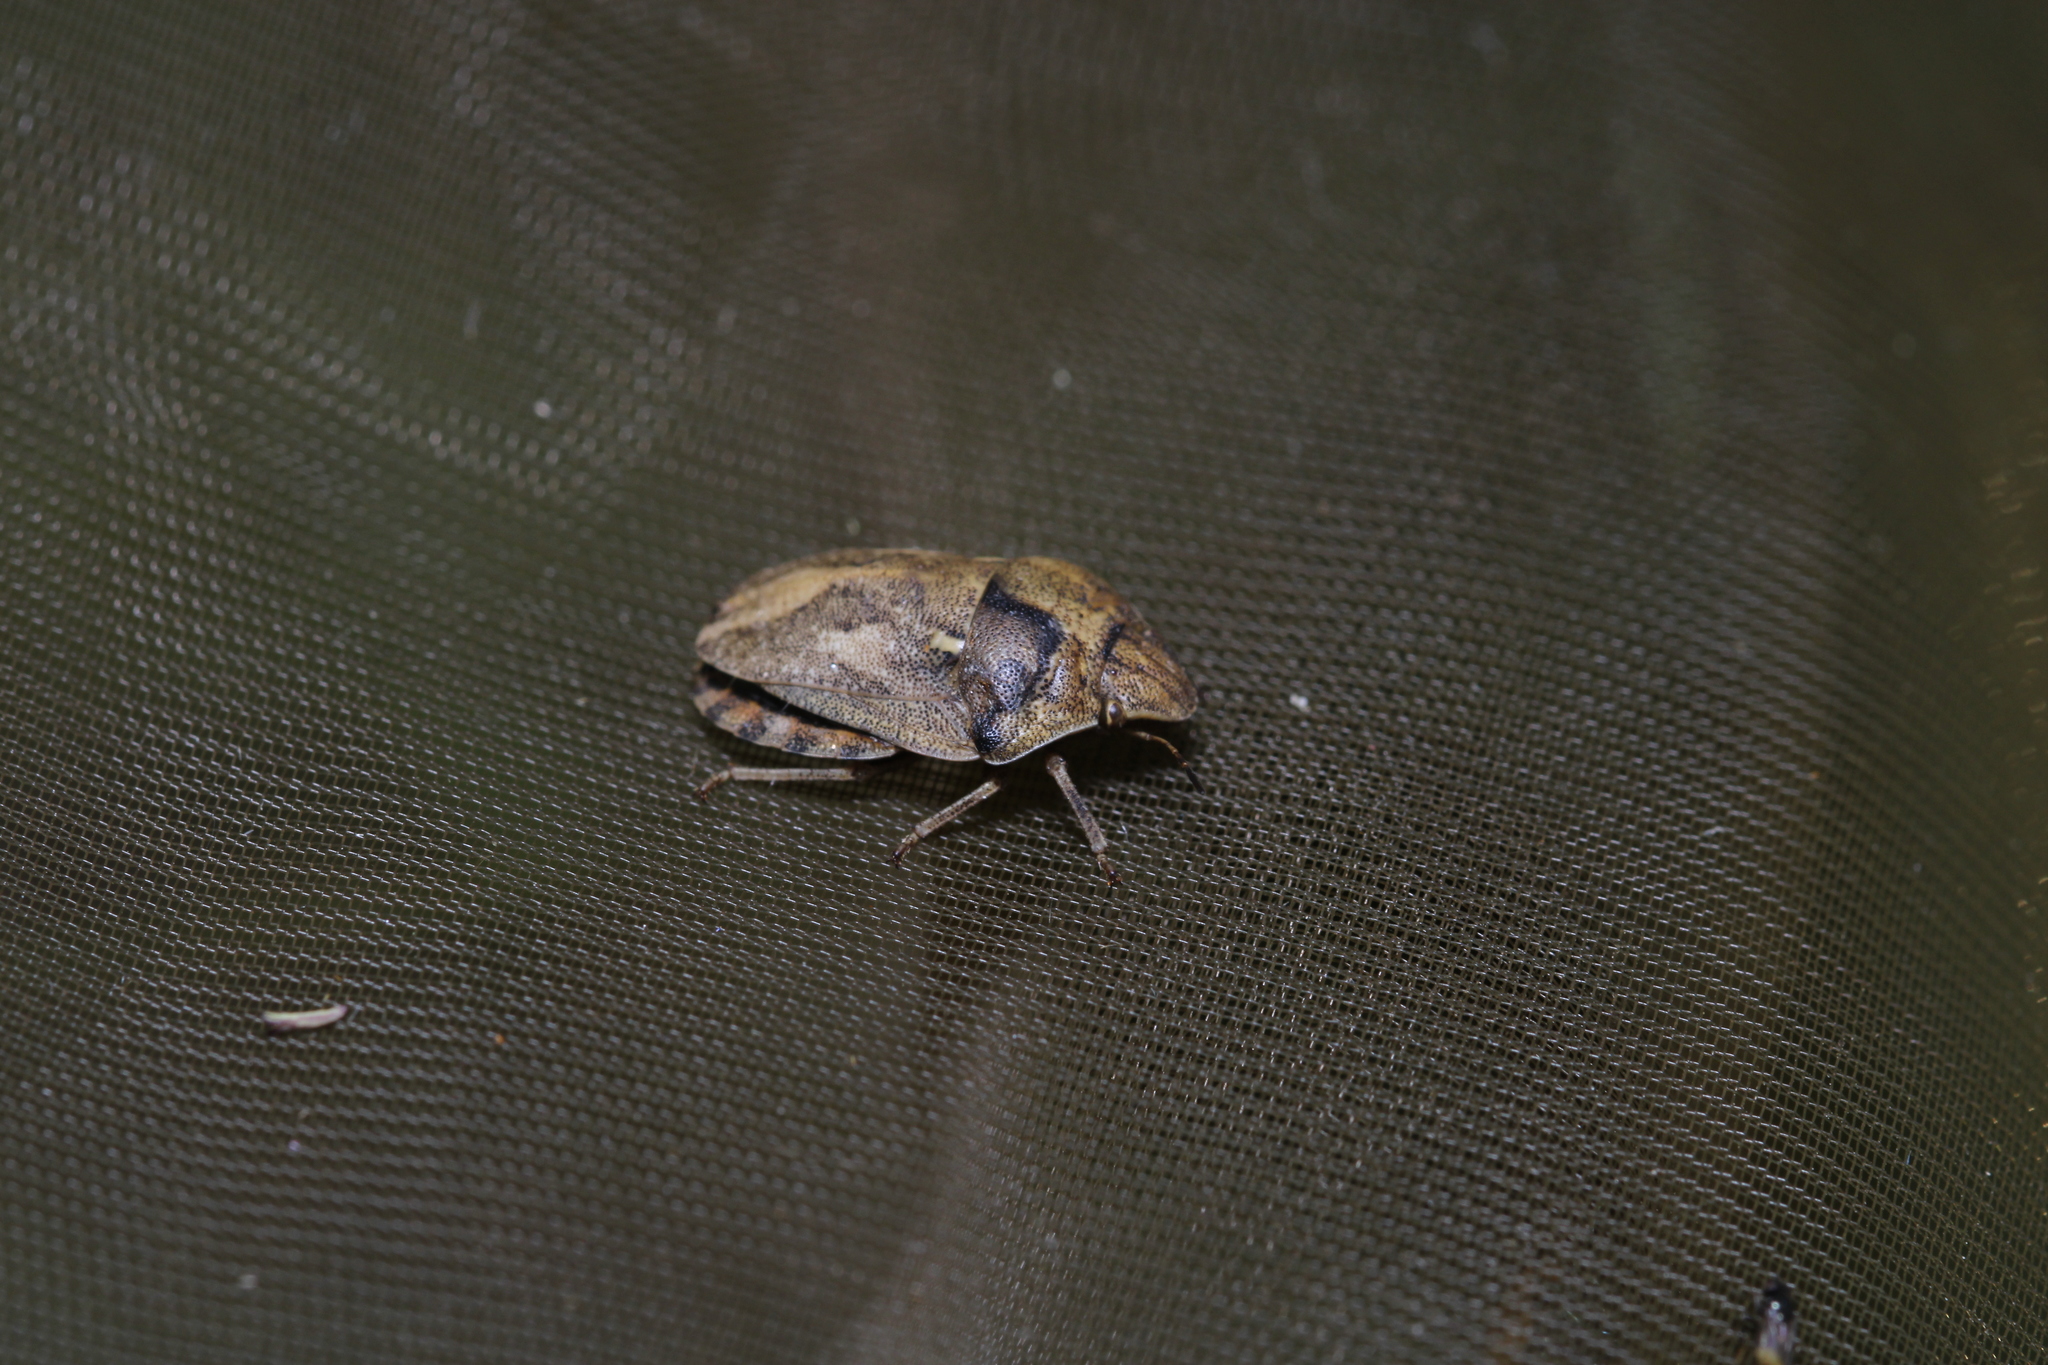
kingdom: Animalia
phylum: Arthropoda
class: Insecta
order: Hemiptera
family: Scutelleridae
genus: Eurygaster
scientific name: Eurygaster maura
